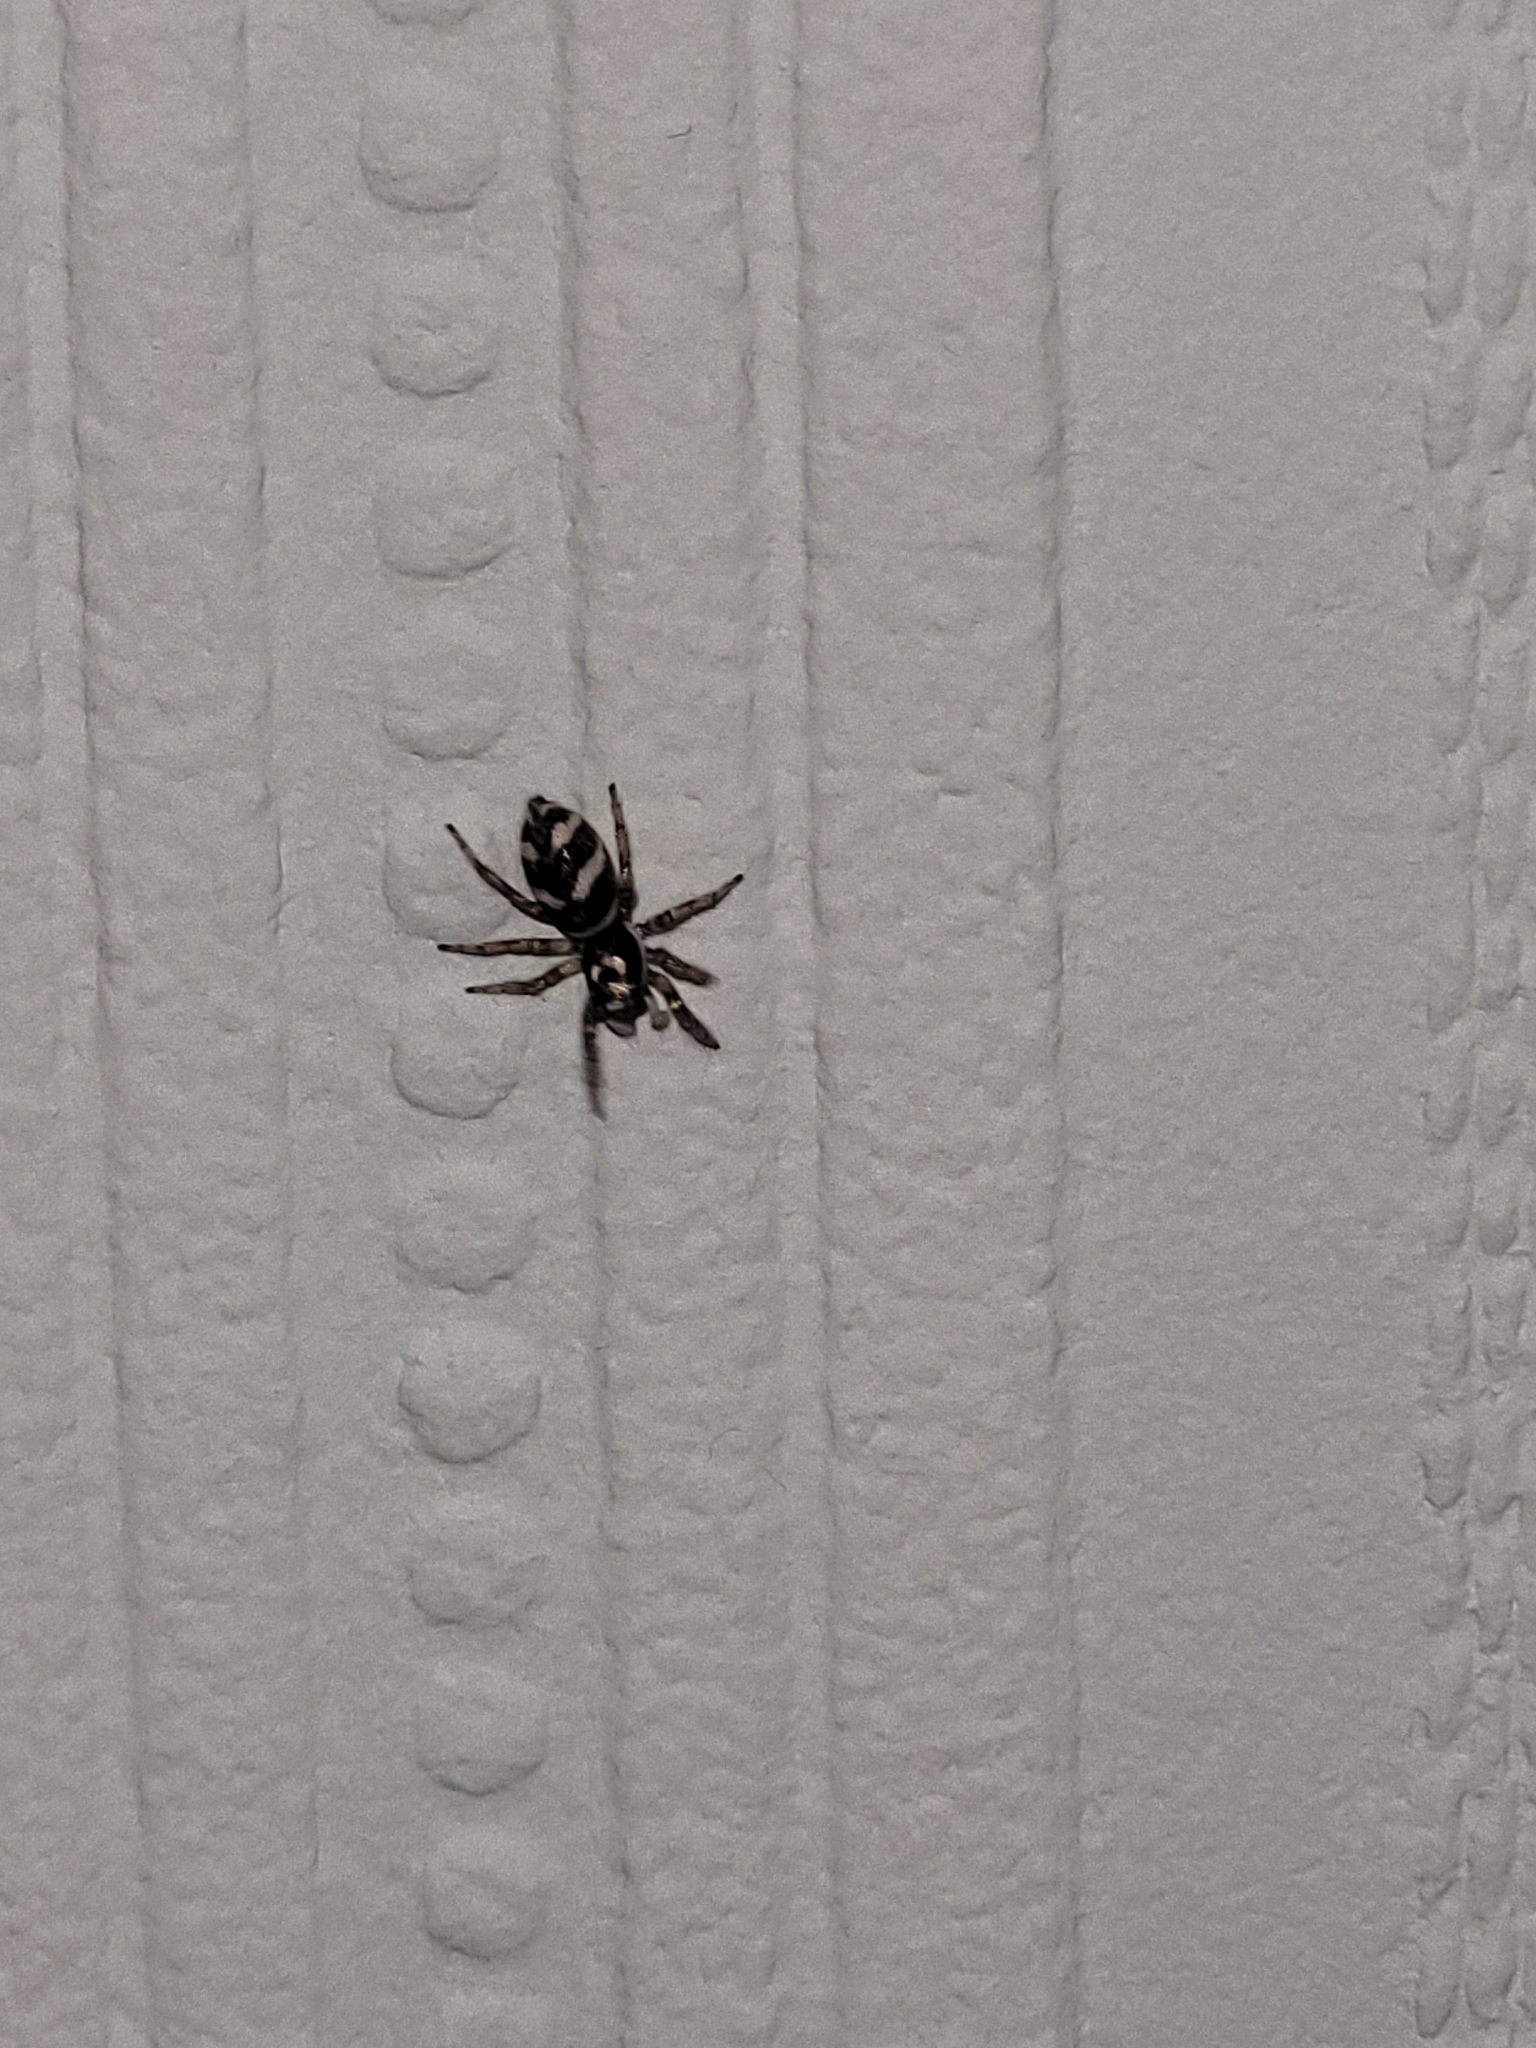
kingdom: Animalia
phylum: Arthropoda
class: Arachnida
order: Araneae
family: Salticidae
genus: Salticus
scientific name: Salticus scenicus
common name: Zebra jumper
